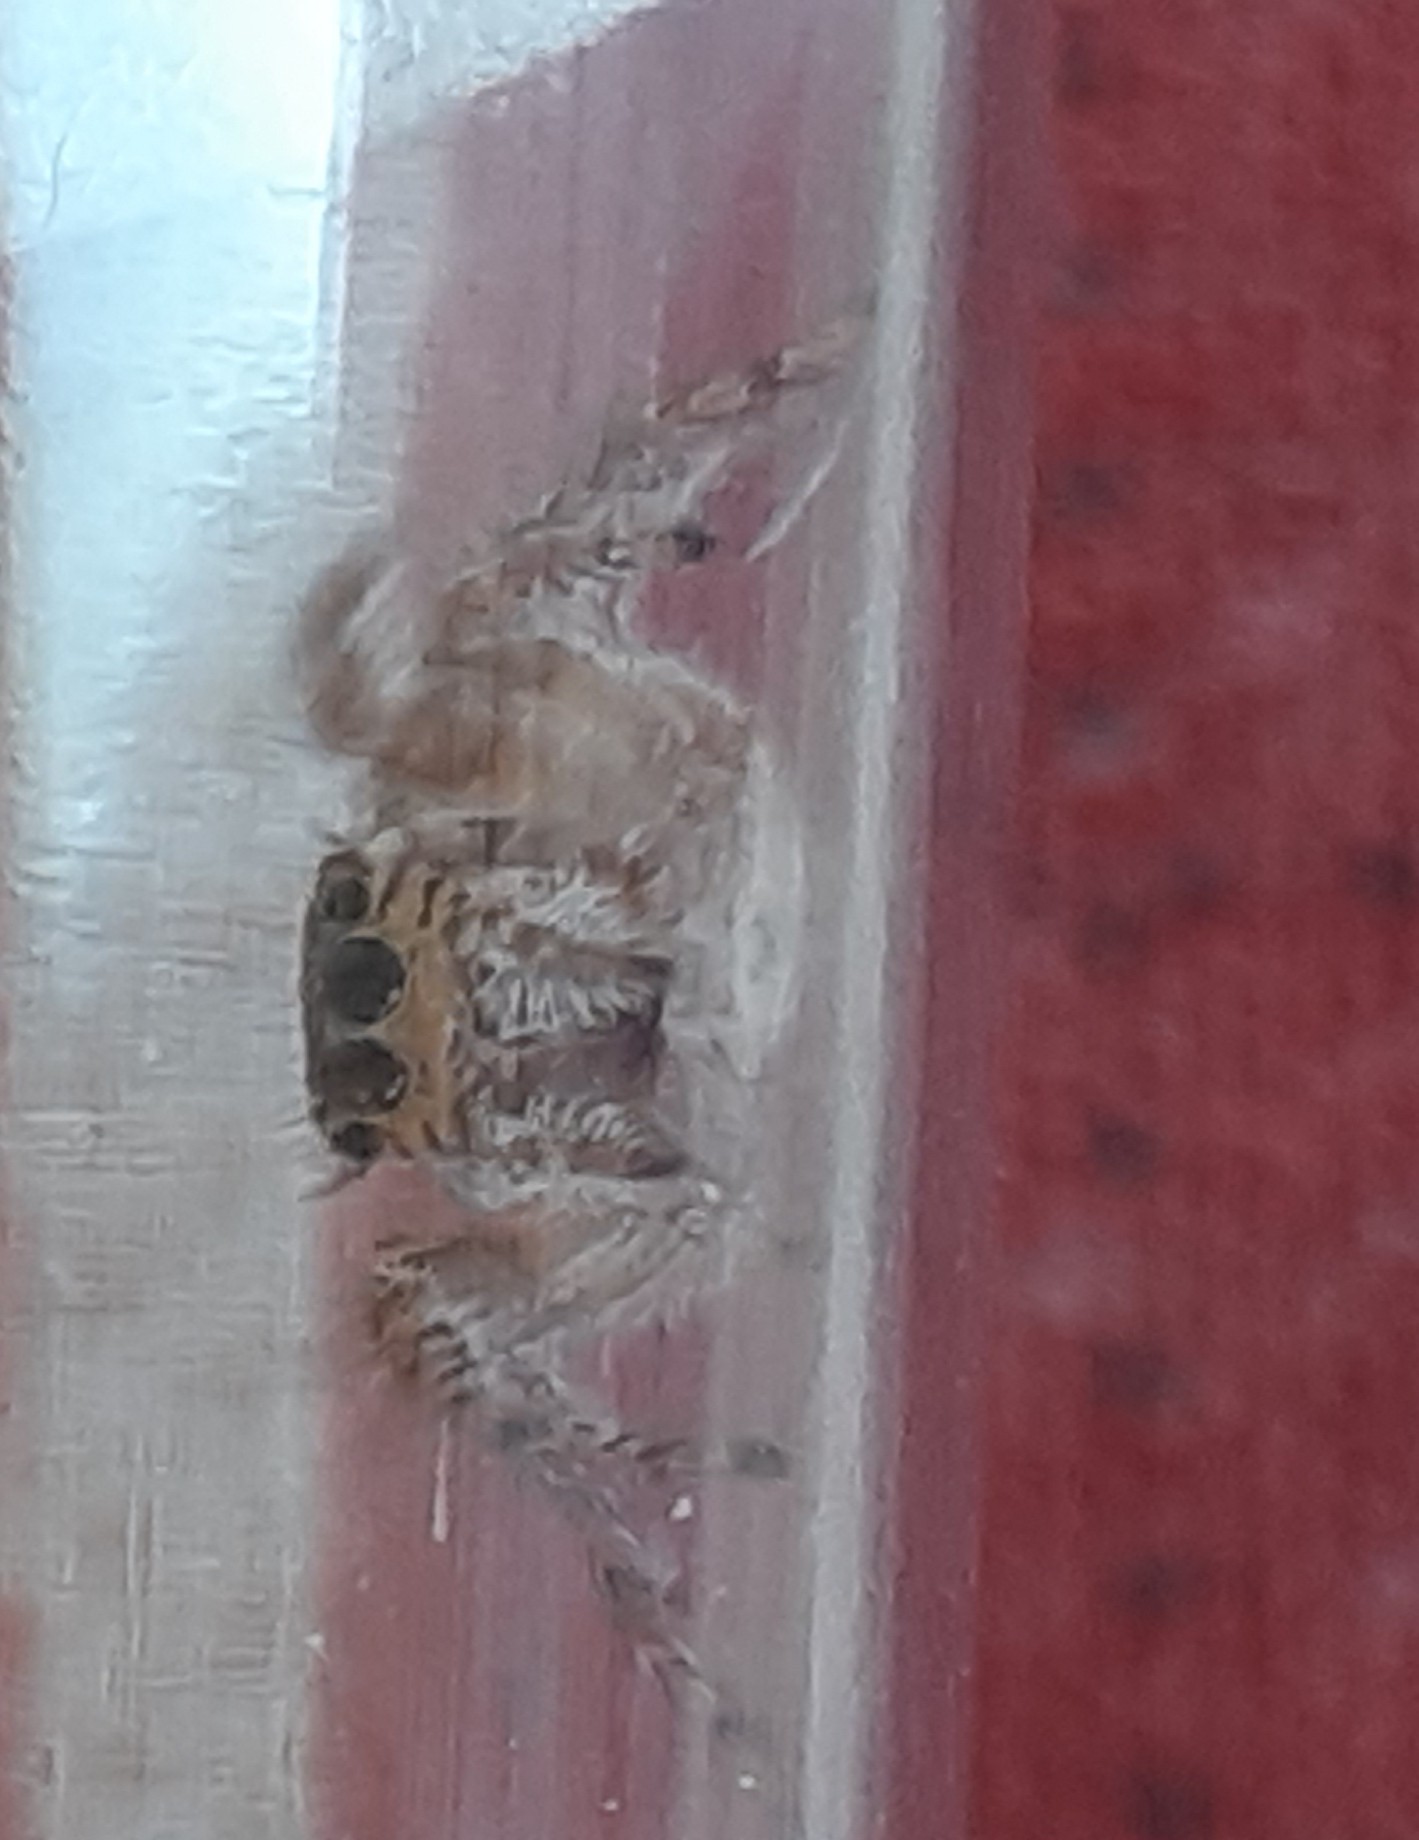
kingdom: Animalia
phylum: Arthropoda
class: Arachnida
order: Araneae
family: Salticidae
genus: Evarcha
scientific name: Evarcha jucunda
